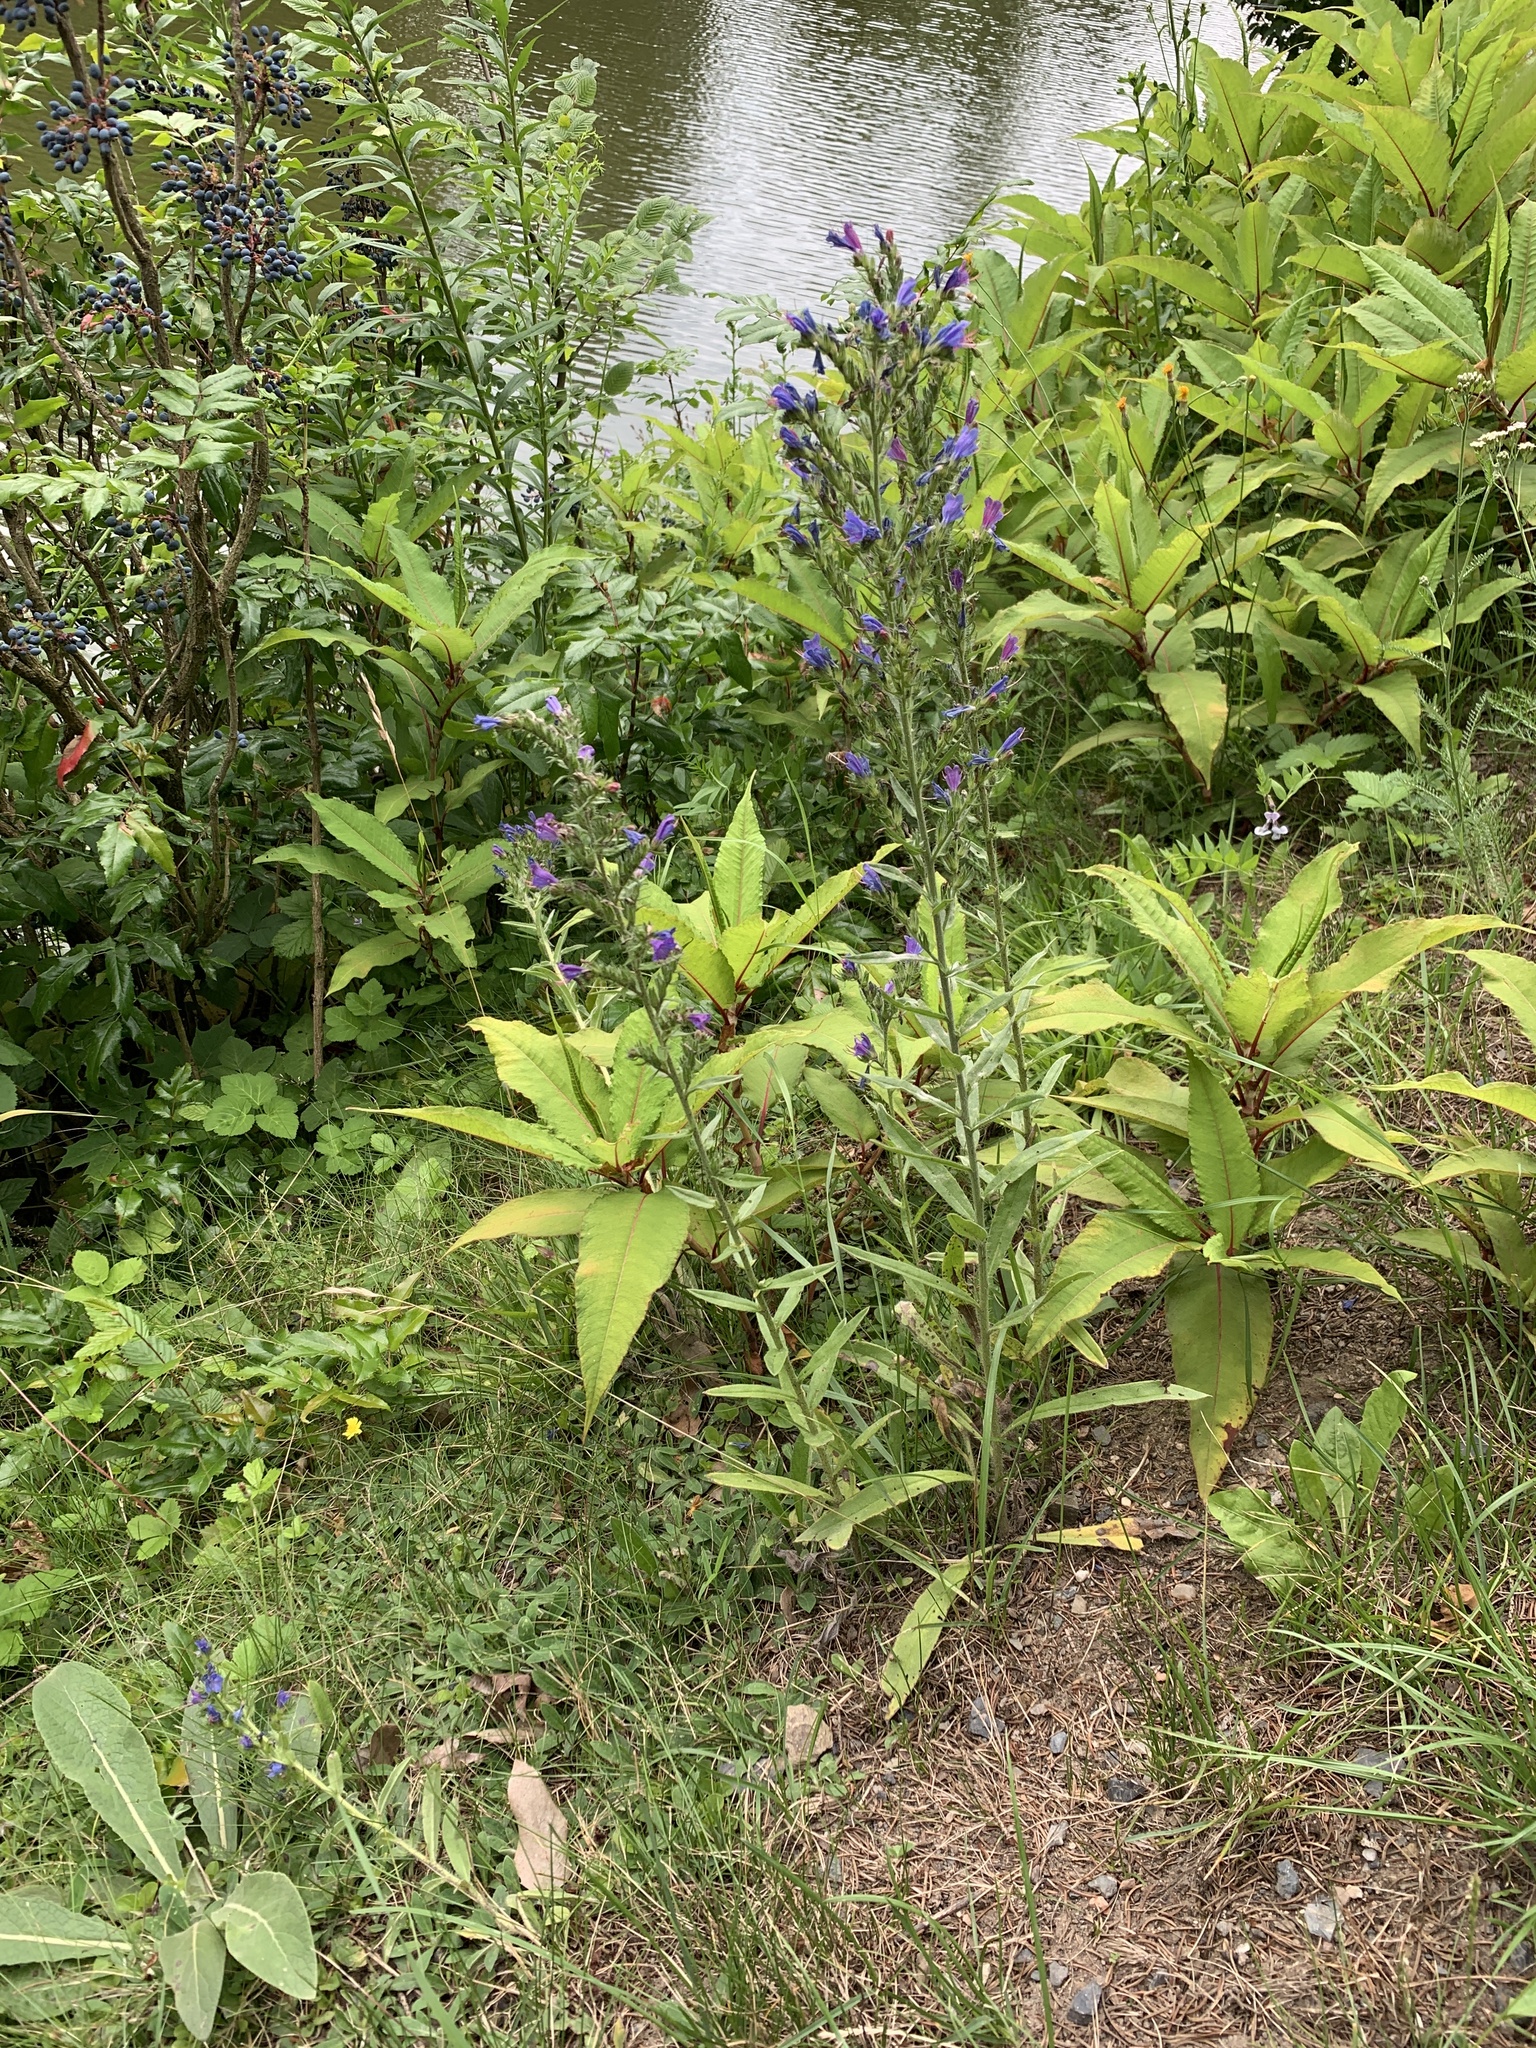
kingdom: Plantae
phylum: Tracheophyta
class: Magnoliopsida
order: Boraginales
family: Boraginaceae
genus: Echium
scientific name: Echium vulgare
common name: Common viper's bugloss
